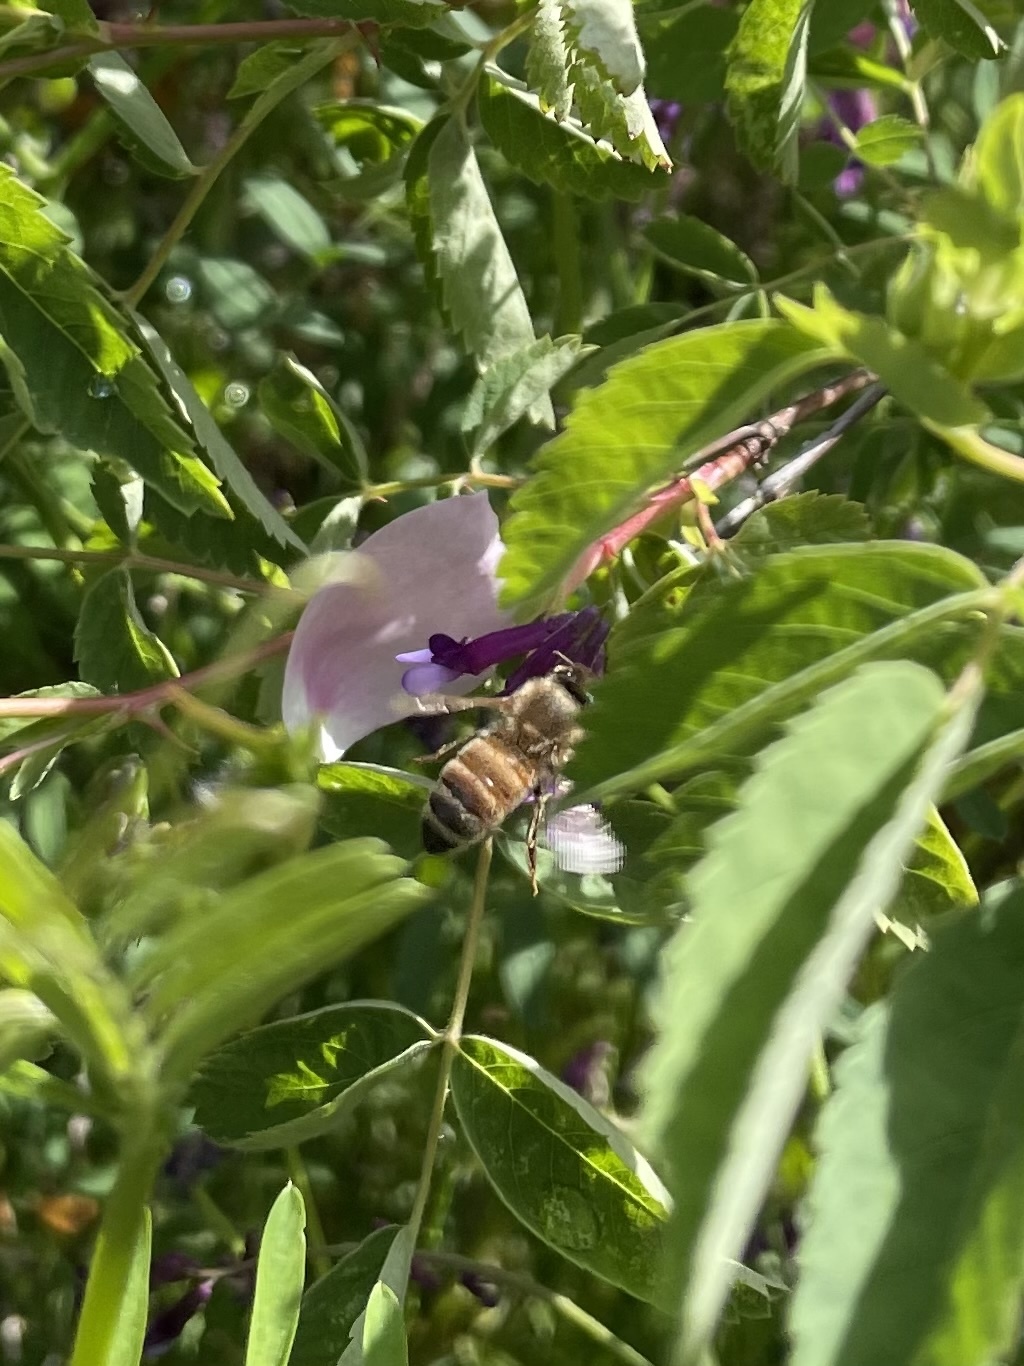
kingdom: Animalia
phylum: Arthropoda
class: Insecta
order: Hymenoptera
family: Apidae
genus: Apis
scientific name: Apis mellifera
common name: Honey bee
